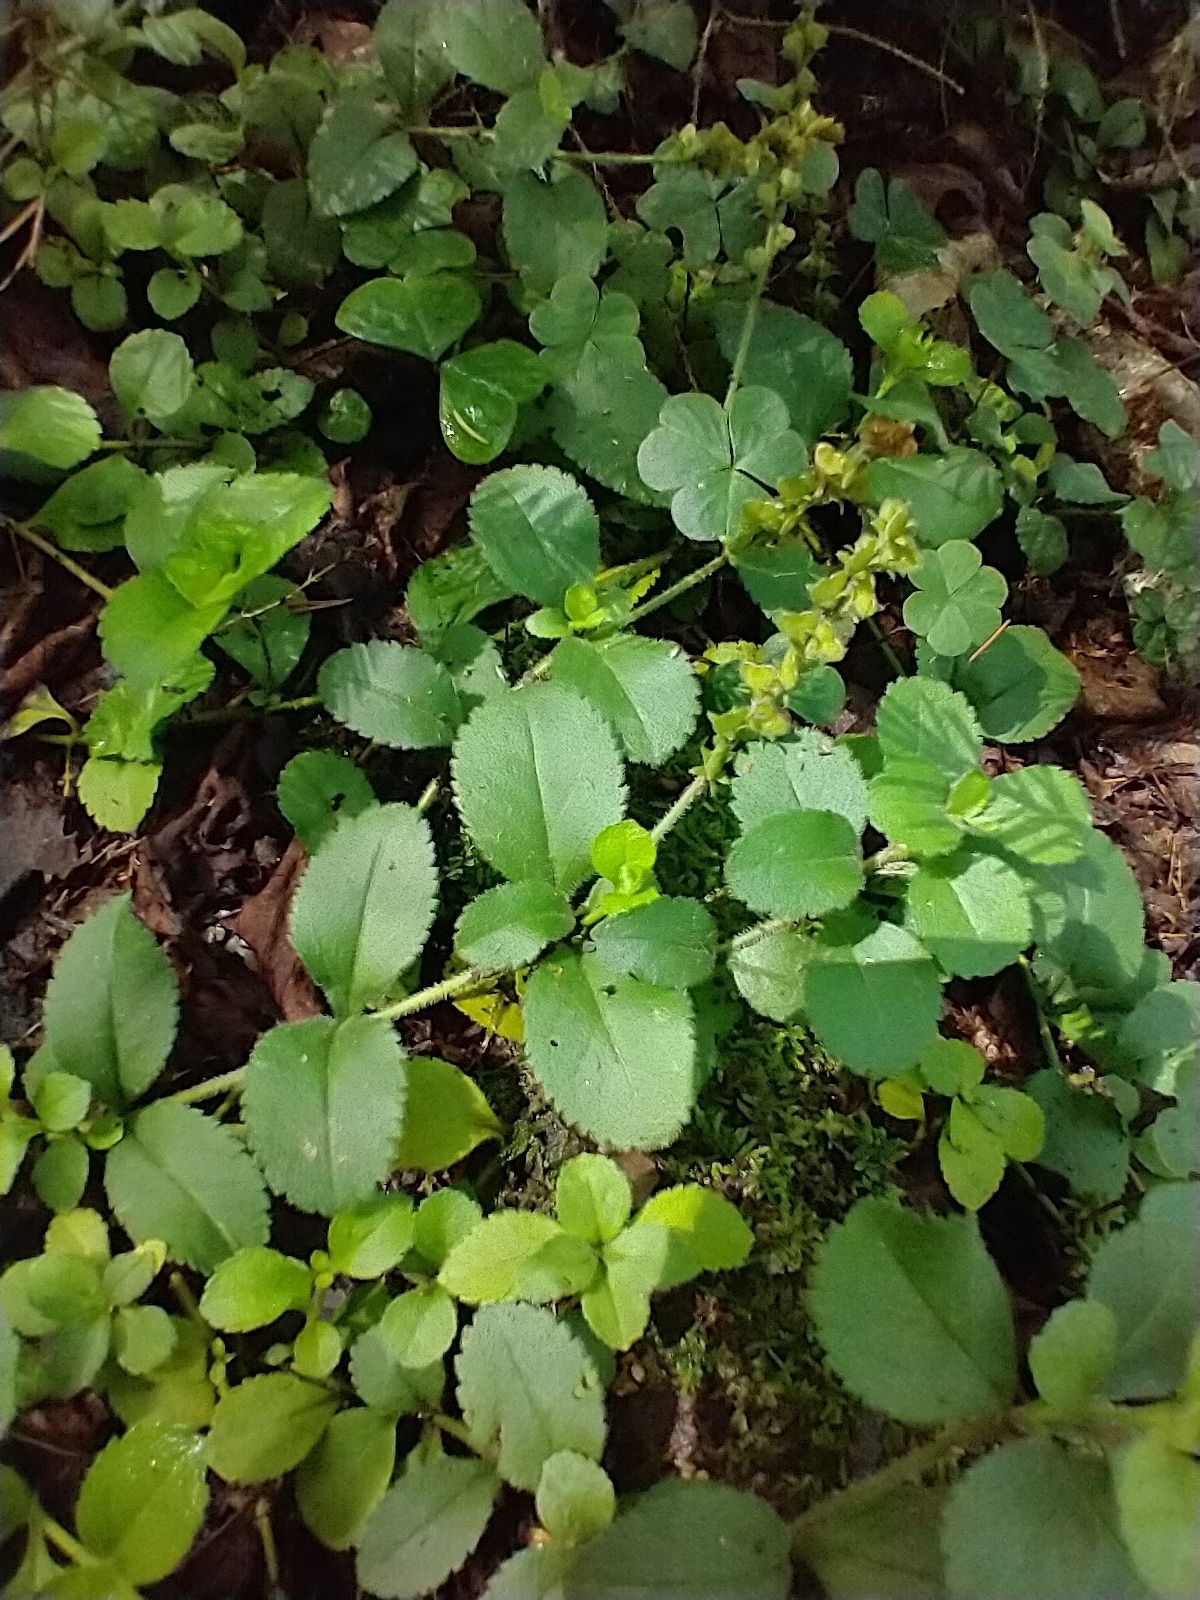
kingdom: Plantae
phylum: Tracheophyta
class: Magnoliopsida
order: Lamiales
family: Plantaginaceae
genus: Veronica
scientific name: Veronica officinalis
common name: Common speedwell
